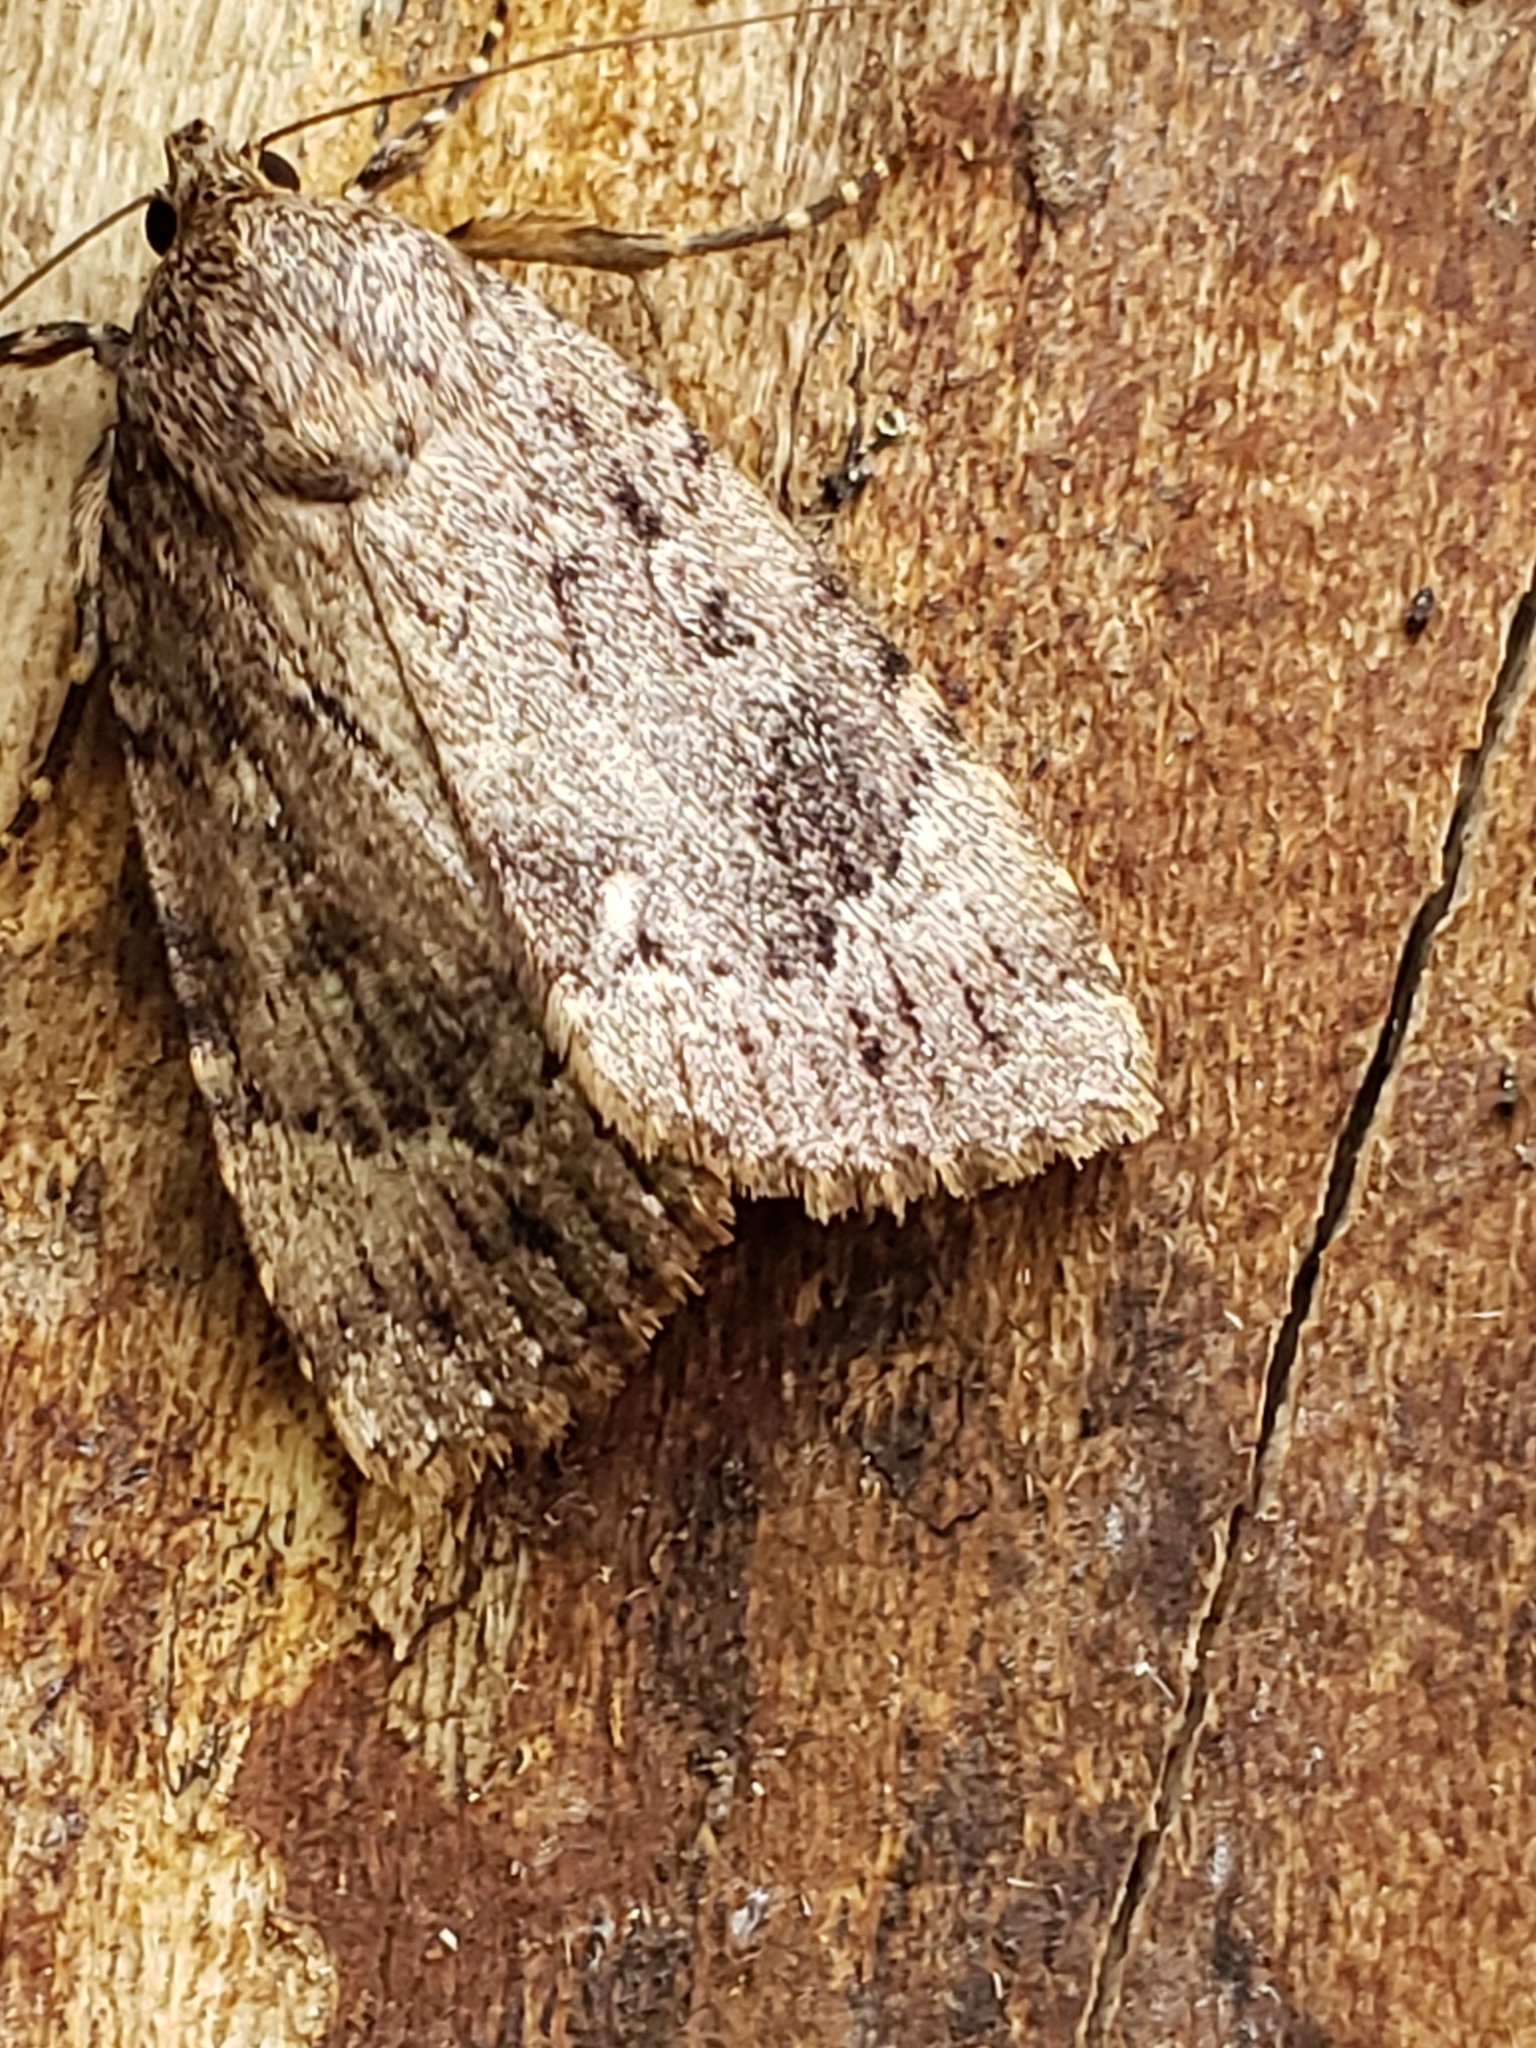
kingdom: Animalia
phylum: Arthropoda
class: Insecta
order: Lepidoptera
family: Noctuidae
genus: Amphipyra
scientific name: Amphipyra pyramidoides
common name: American copper underwing
